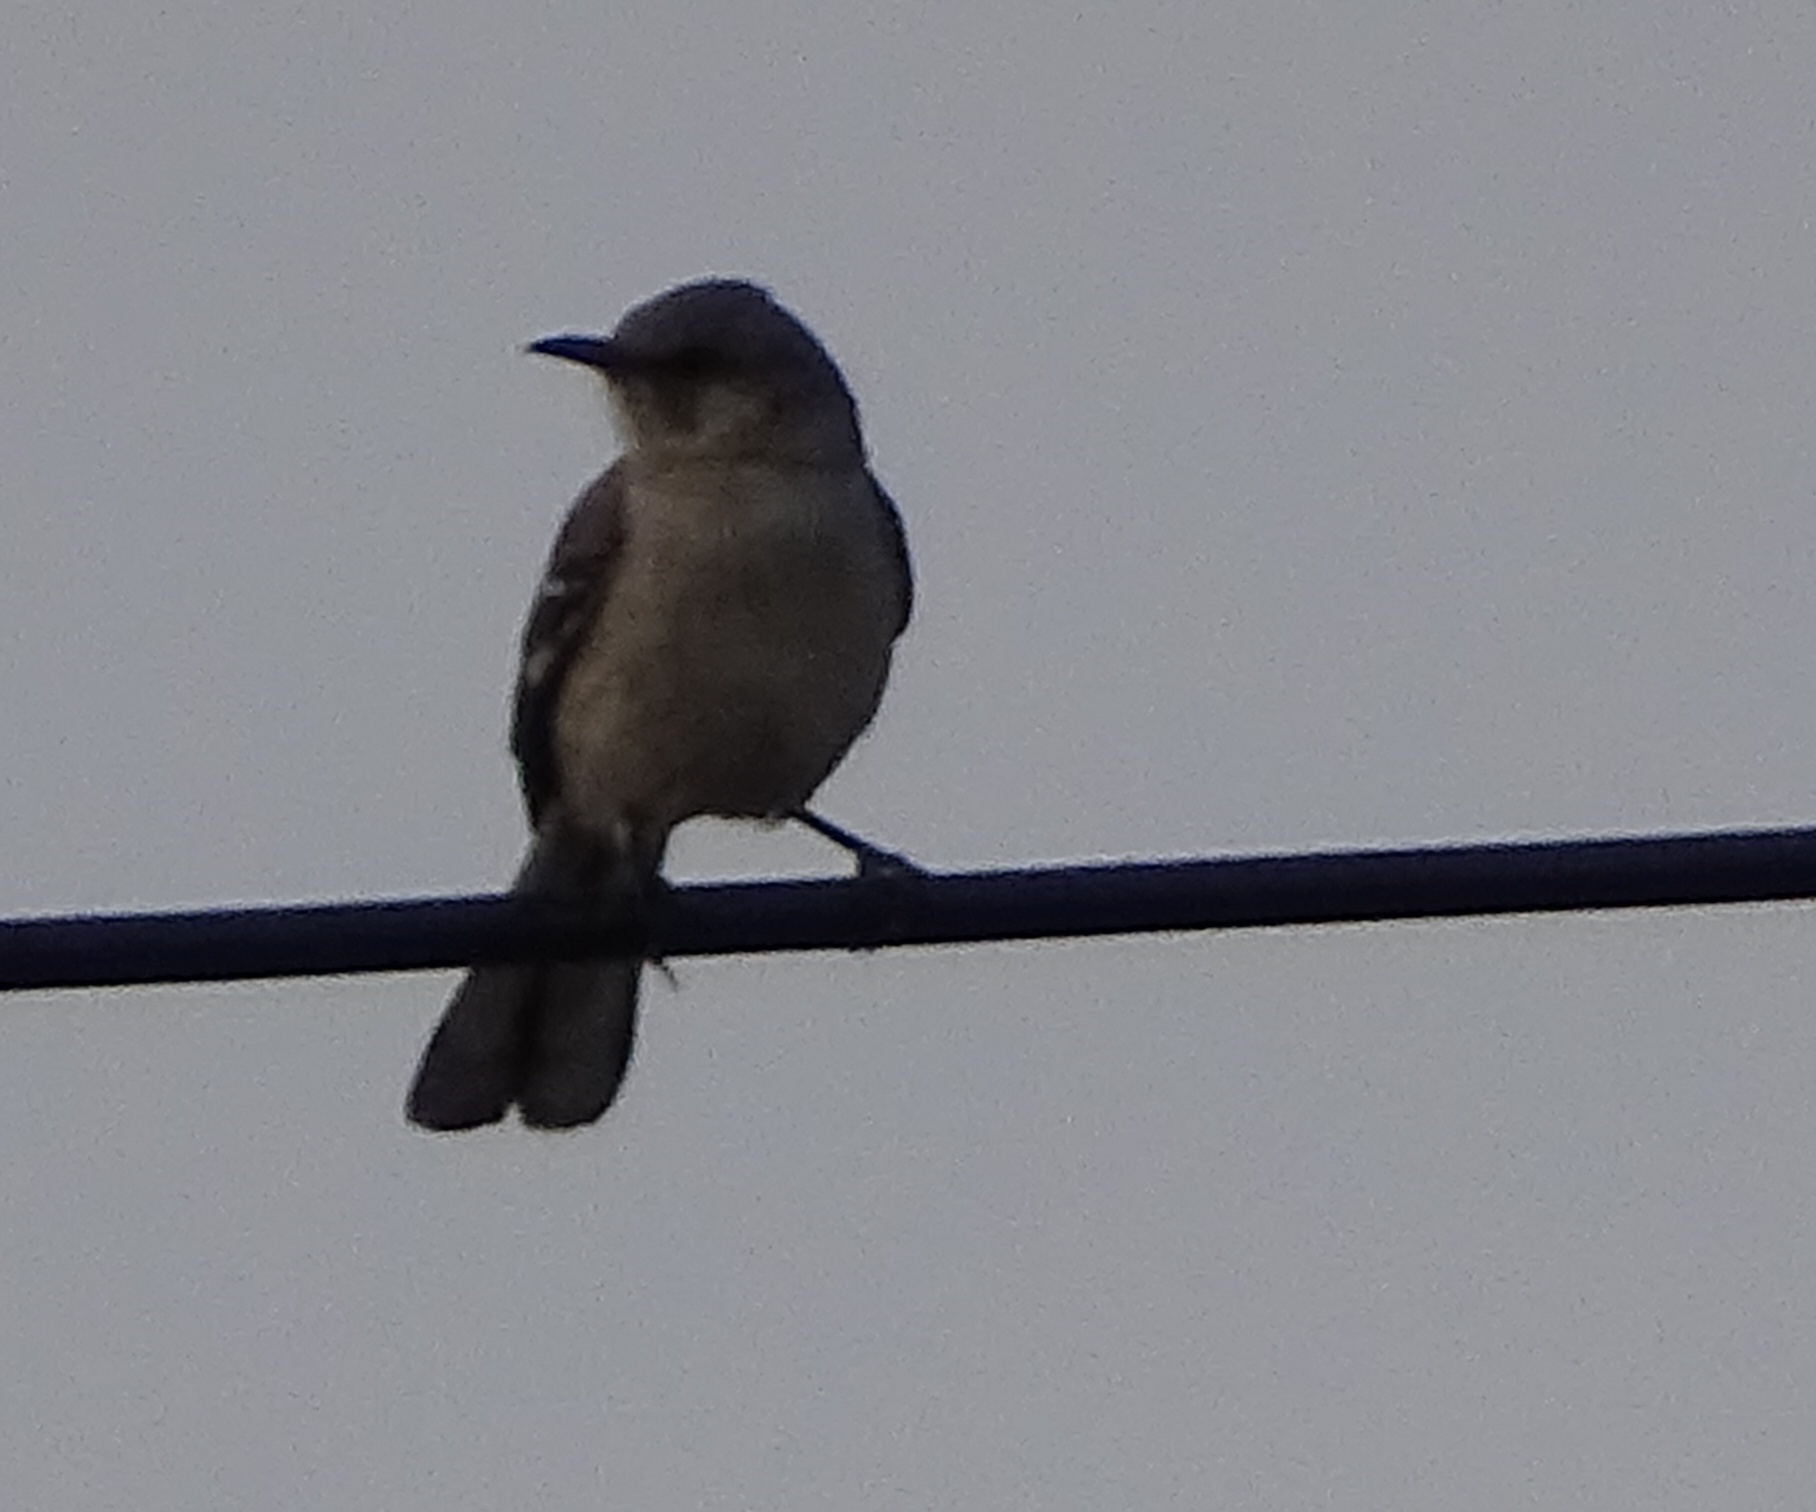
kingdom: Animalia
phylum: Chordata
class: Aves
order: Passeriformes
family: Mimidae
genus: Mimus
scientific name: Mimus polyglottos
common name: Northern mockingbird
